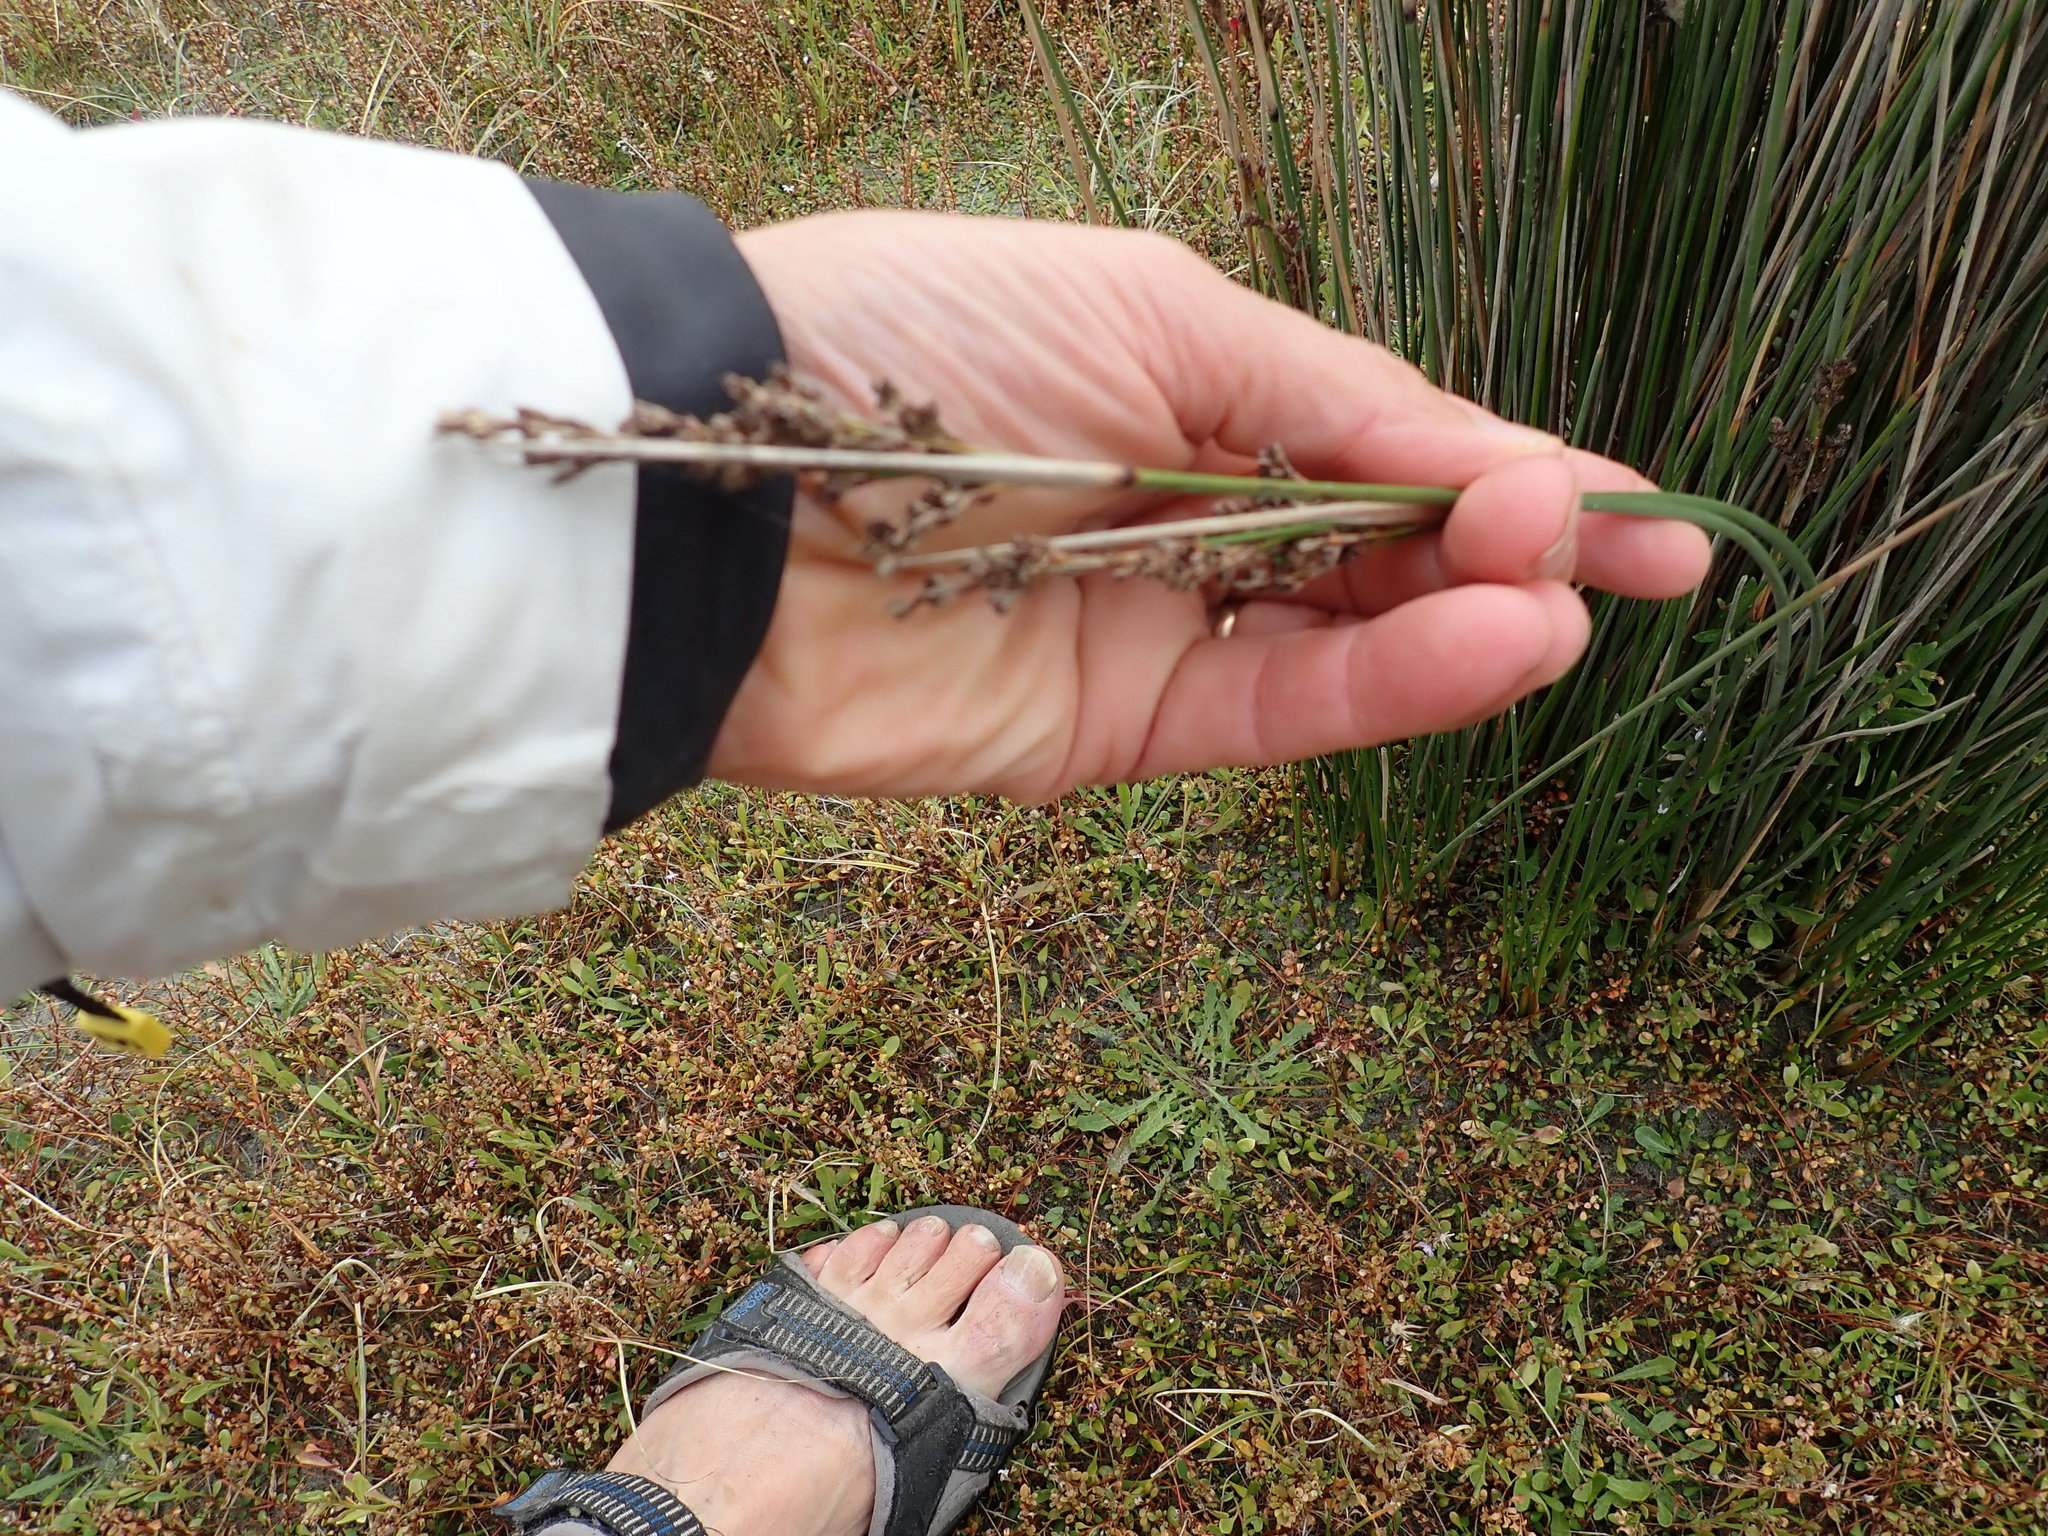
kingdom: Plantae
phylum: Tracheophyta
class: Liliopsida
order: Poales
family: Juncaceae
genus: Juncus
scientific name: Juncus kraussii
